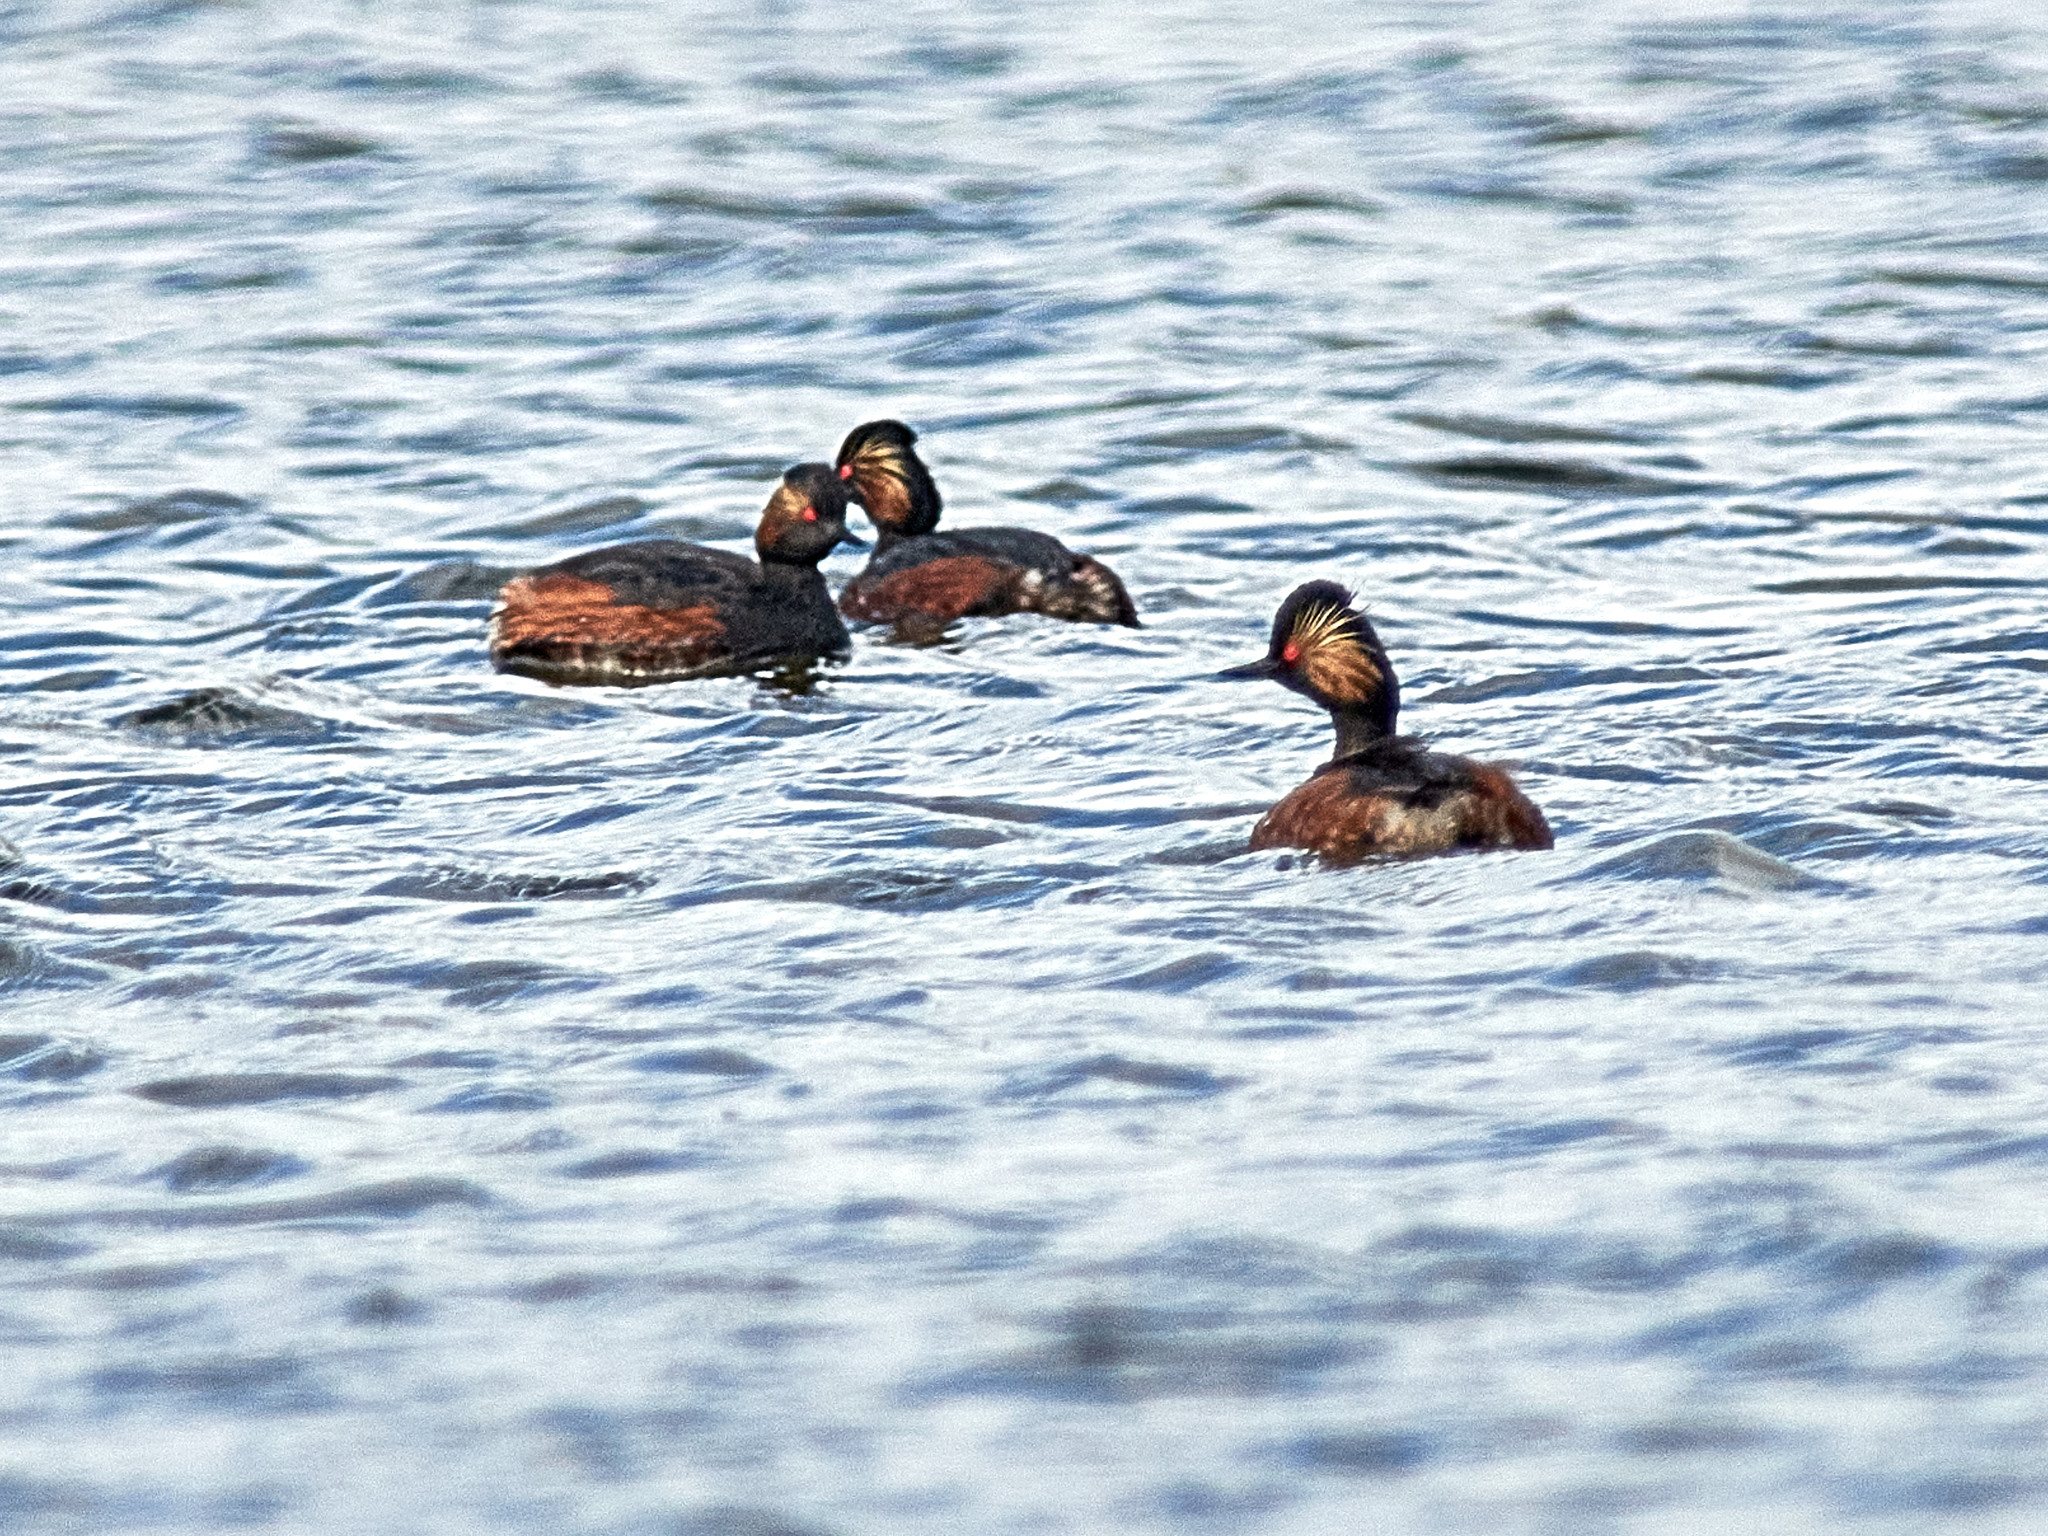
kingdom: Animalia
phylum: Chordata
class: Aves
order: Podicipediformes
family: Podicipedidae
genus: Podiceps
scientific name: Podiceps nigricollis
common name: Black-necked grebe
